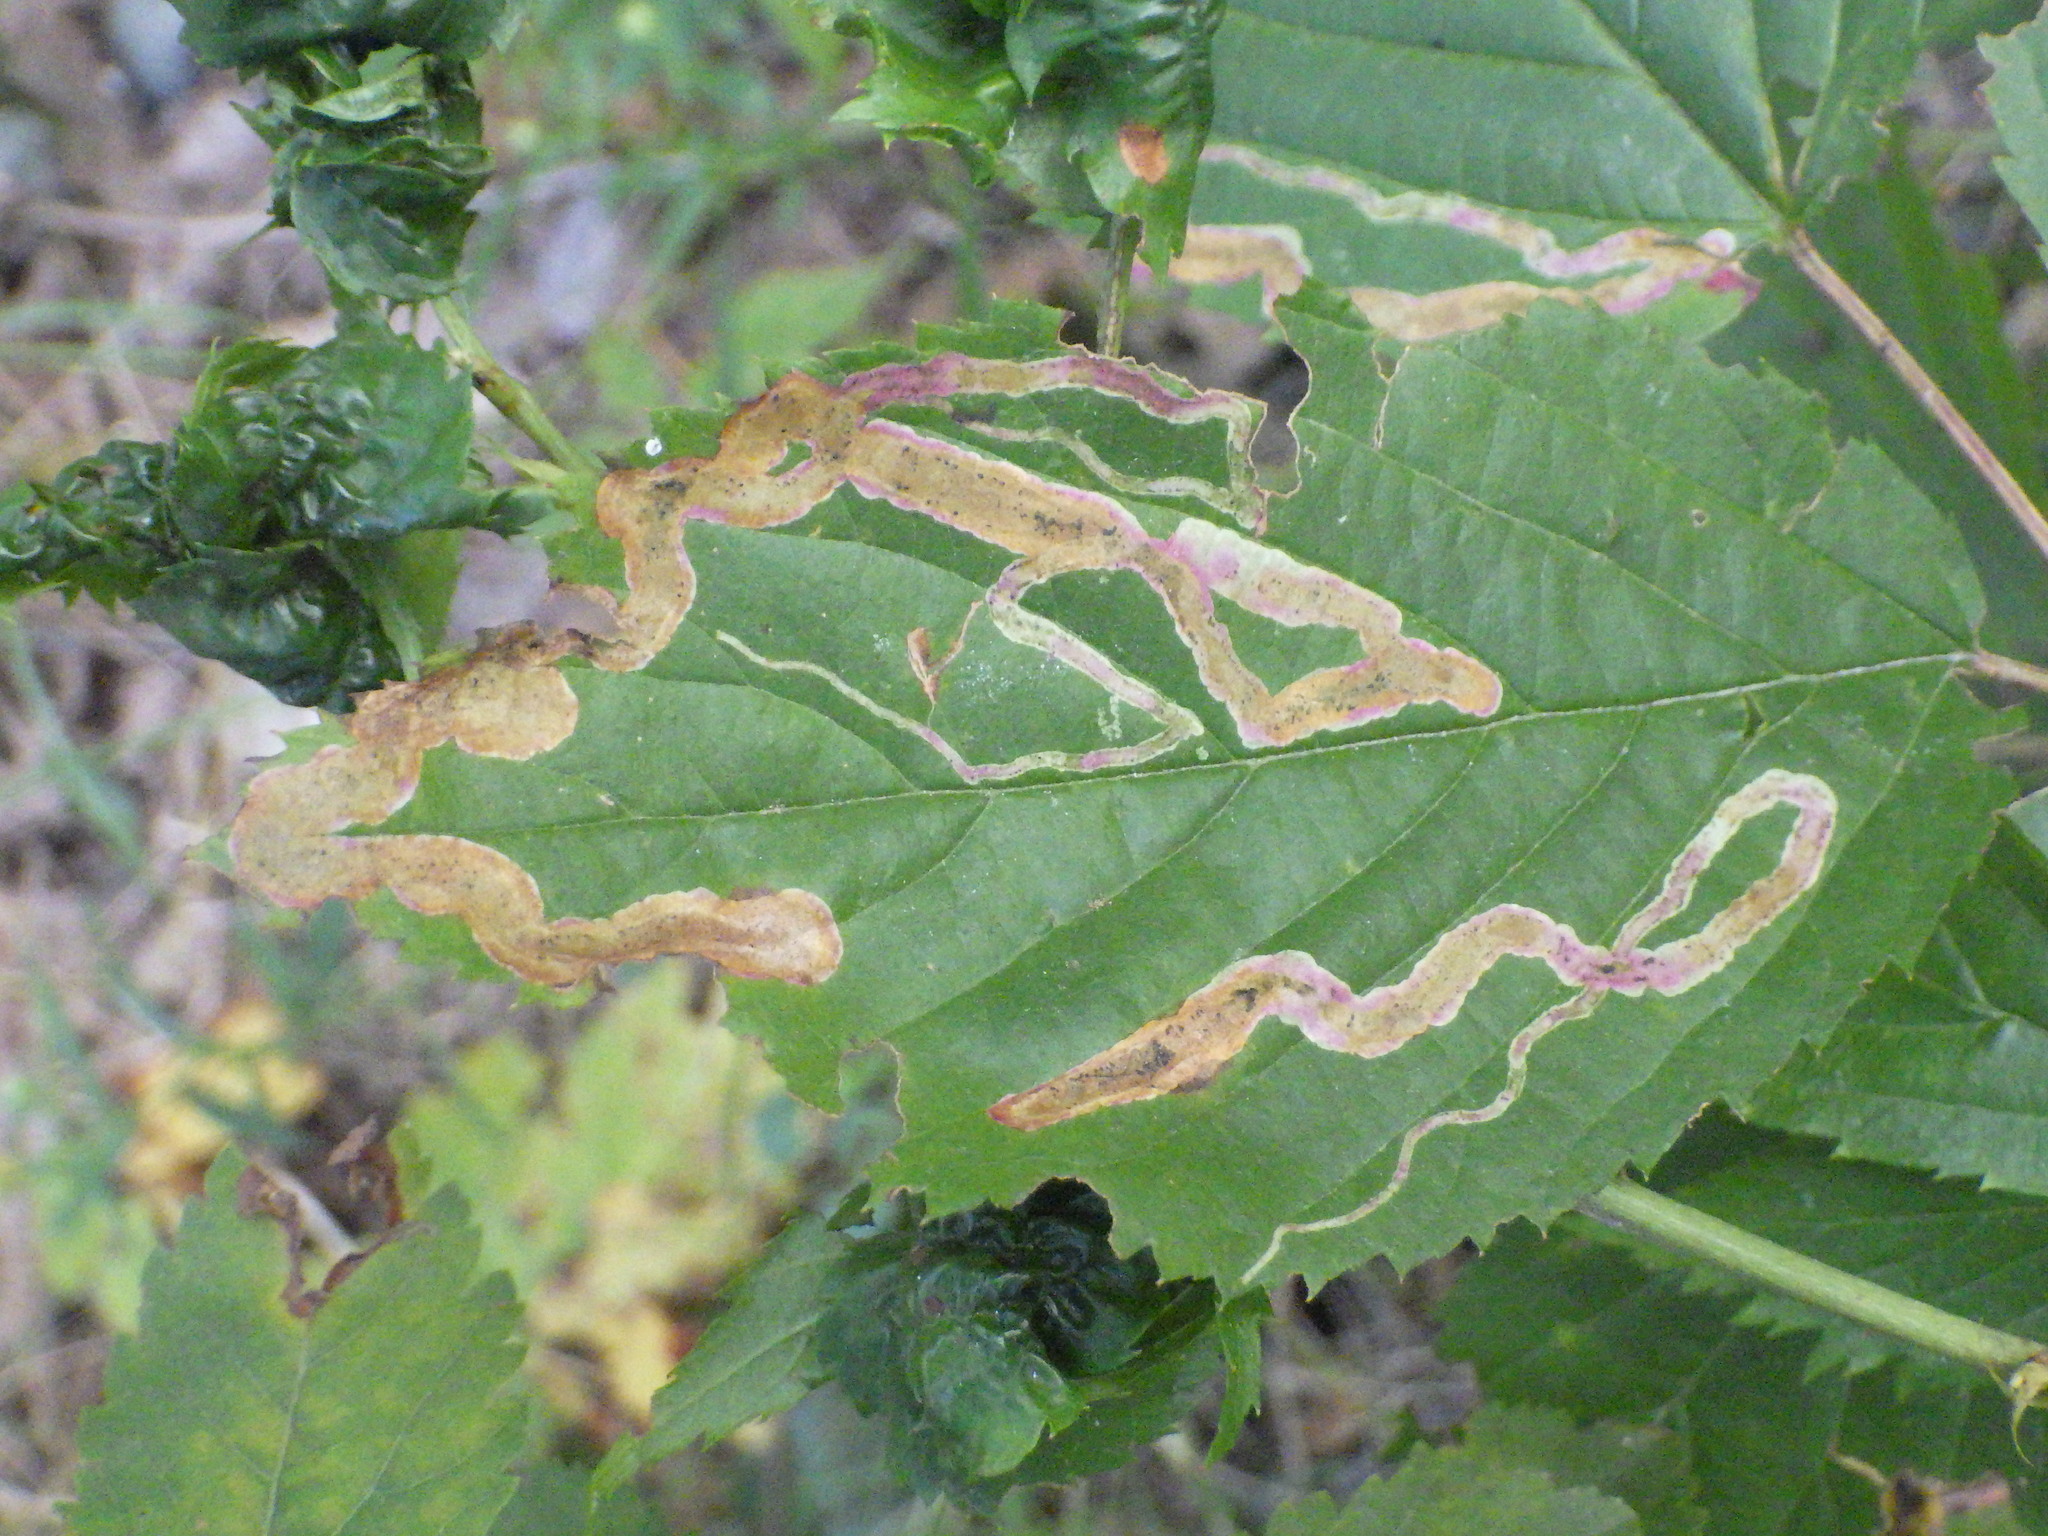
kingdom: Animalia
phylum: Arthropoda
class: Insecta
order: Diptera
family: Agromyzidae
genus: Agromyza
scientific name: Agromyza vockerothi
